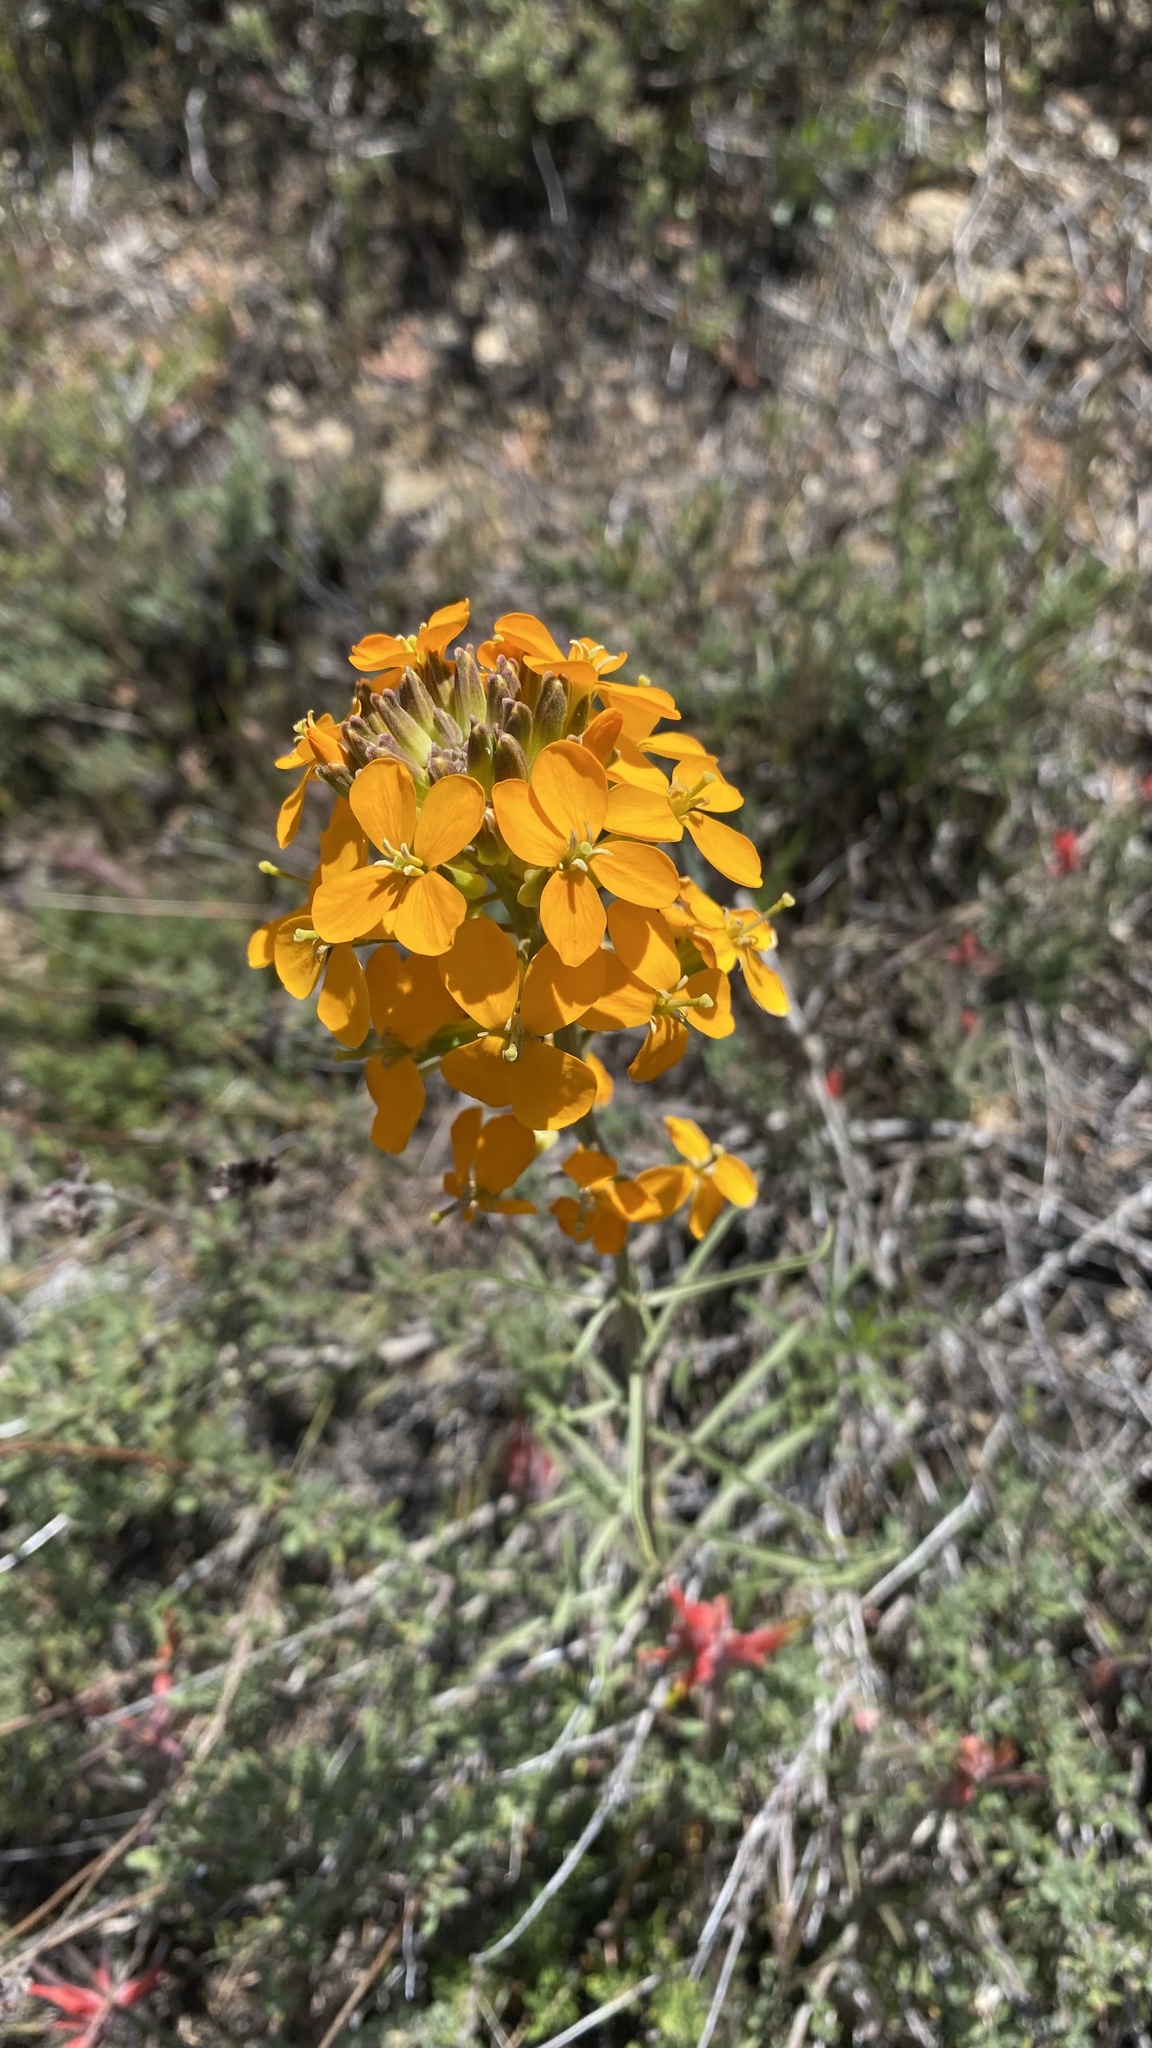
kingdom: Plantae
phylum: Tracheophyta
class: Magnoliopsida
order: Brassicales
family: Brassicaceae
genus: Erysimum
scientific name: Erysimum capitatum
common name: Western wallflower
